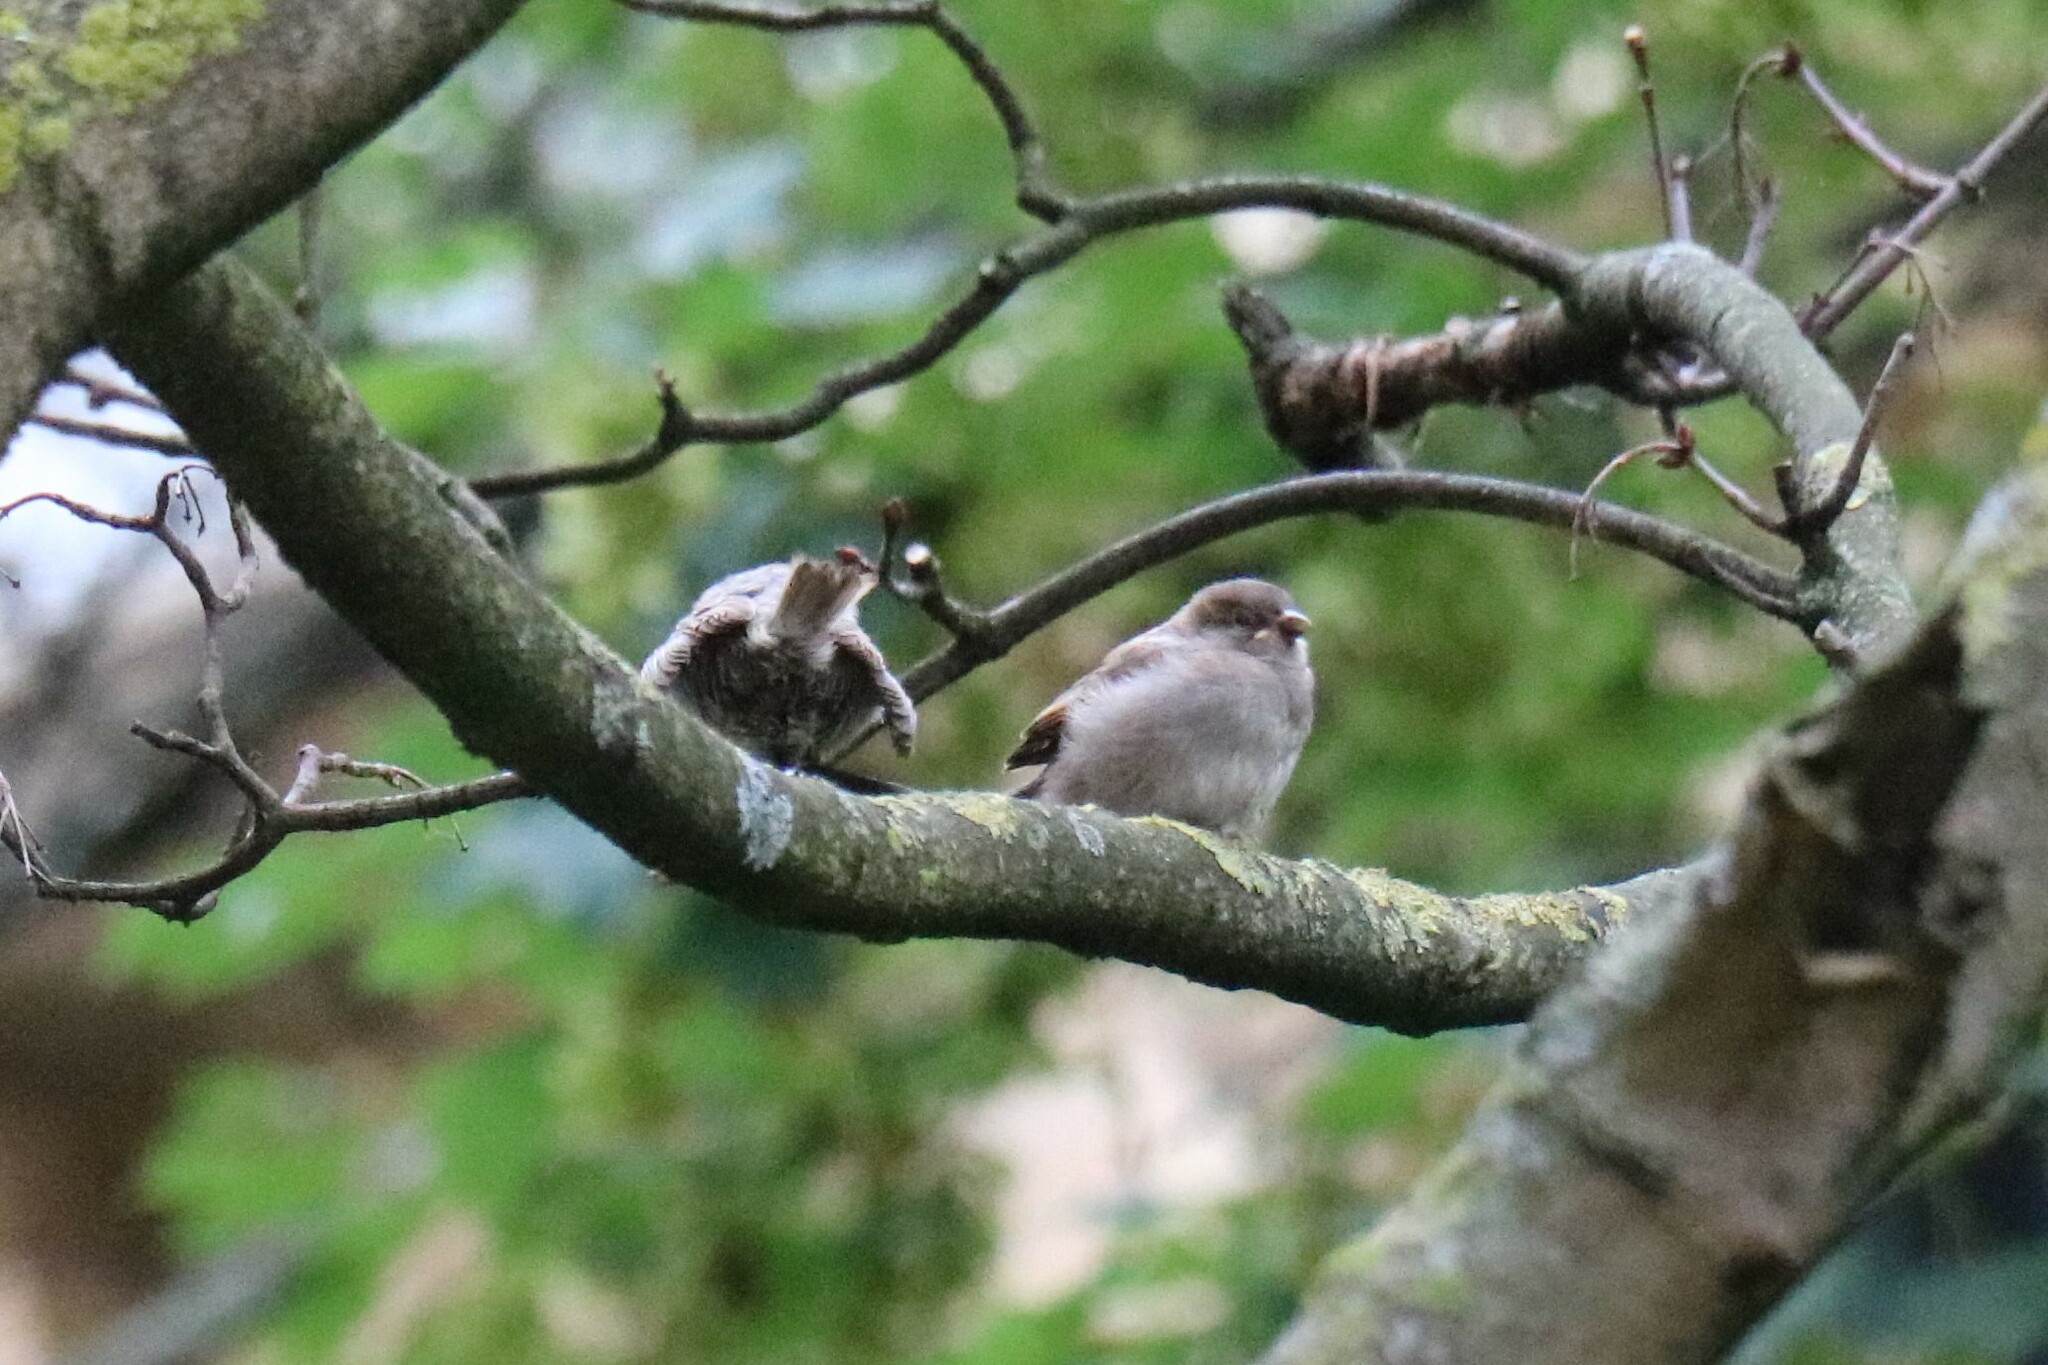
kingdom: Animalia
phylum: Chordata
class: Aves
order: Passeriformes
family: Passeridae
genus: Passer
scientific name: Passer domesticus
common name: House sparrow
